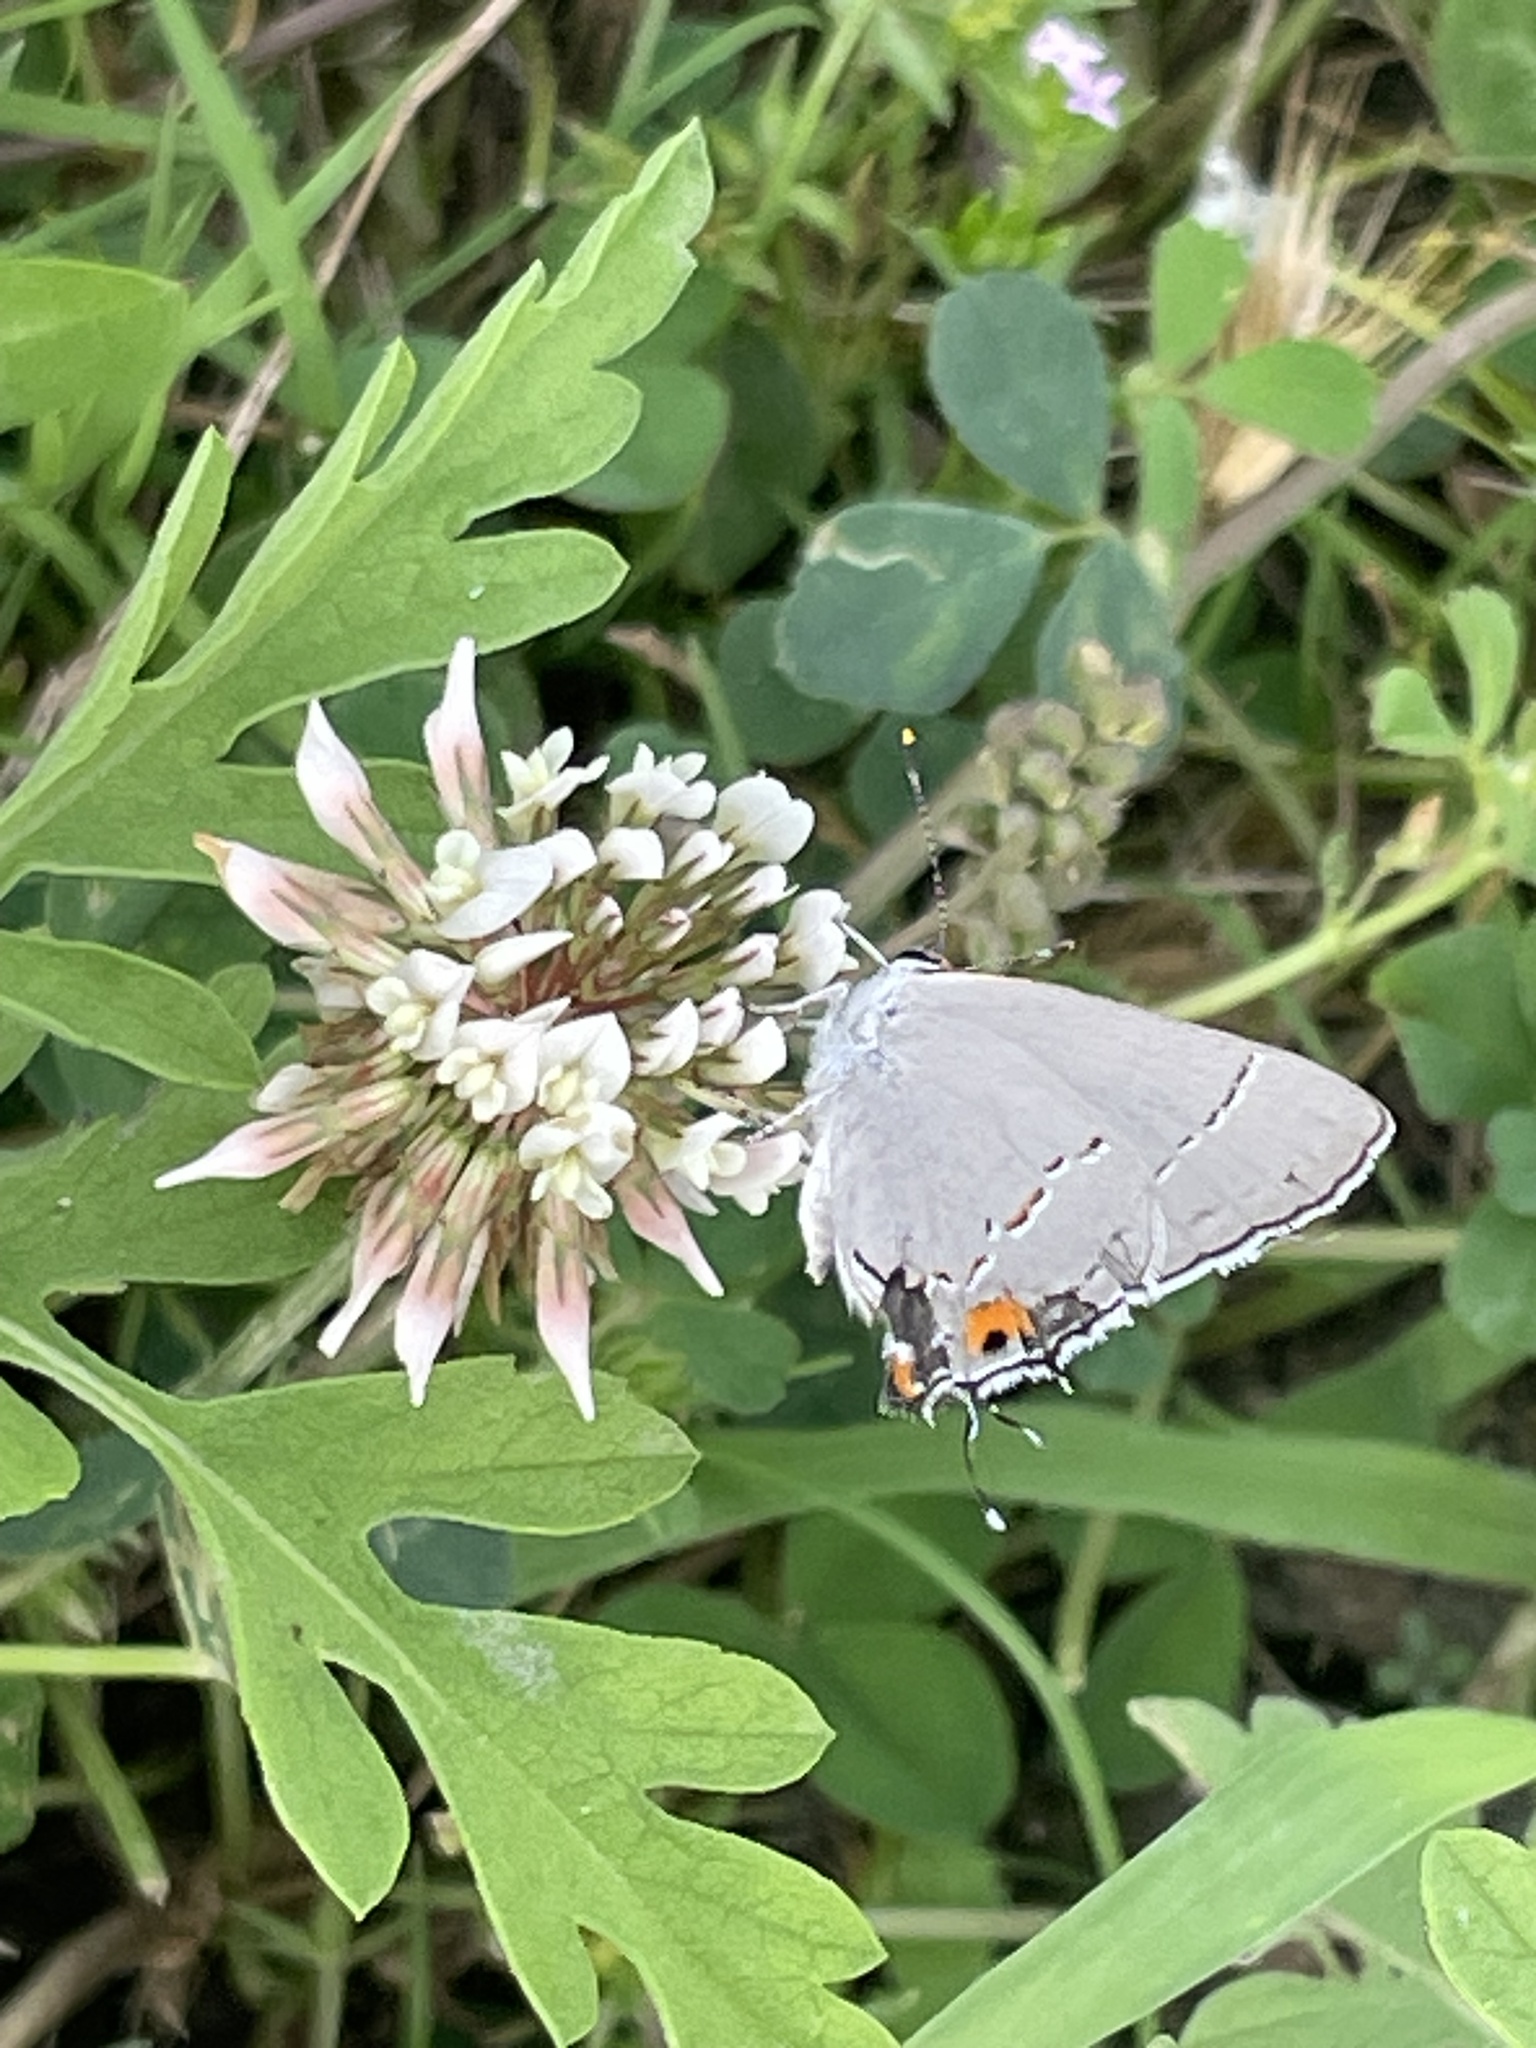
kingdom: Animalia
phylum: Arthropoda
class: Insecta
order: Lepidoptera
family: Lycaenidae
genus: Strymon
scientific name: Strymon melinus
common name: Gray hairstreak
